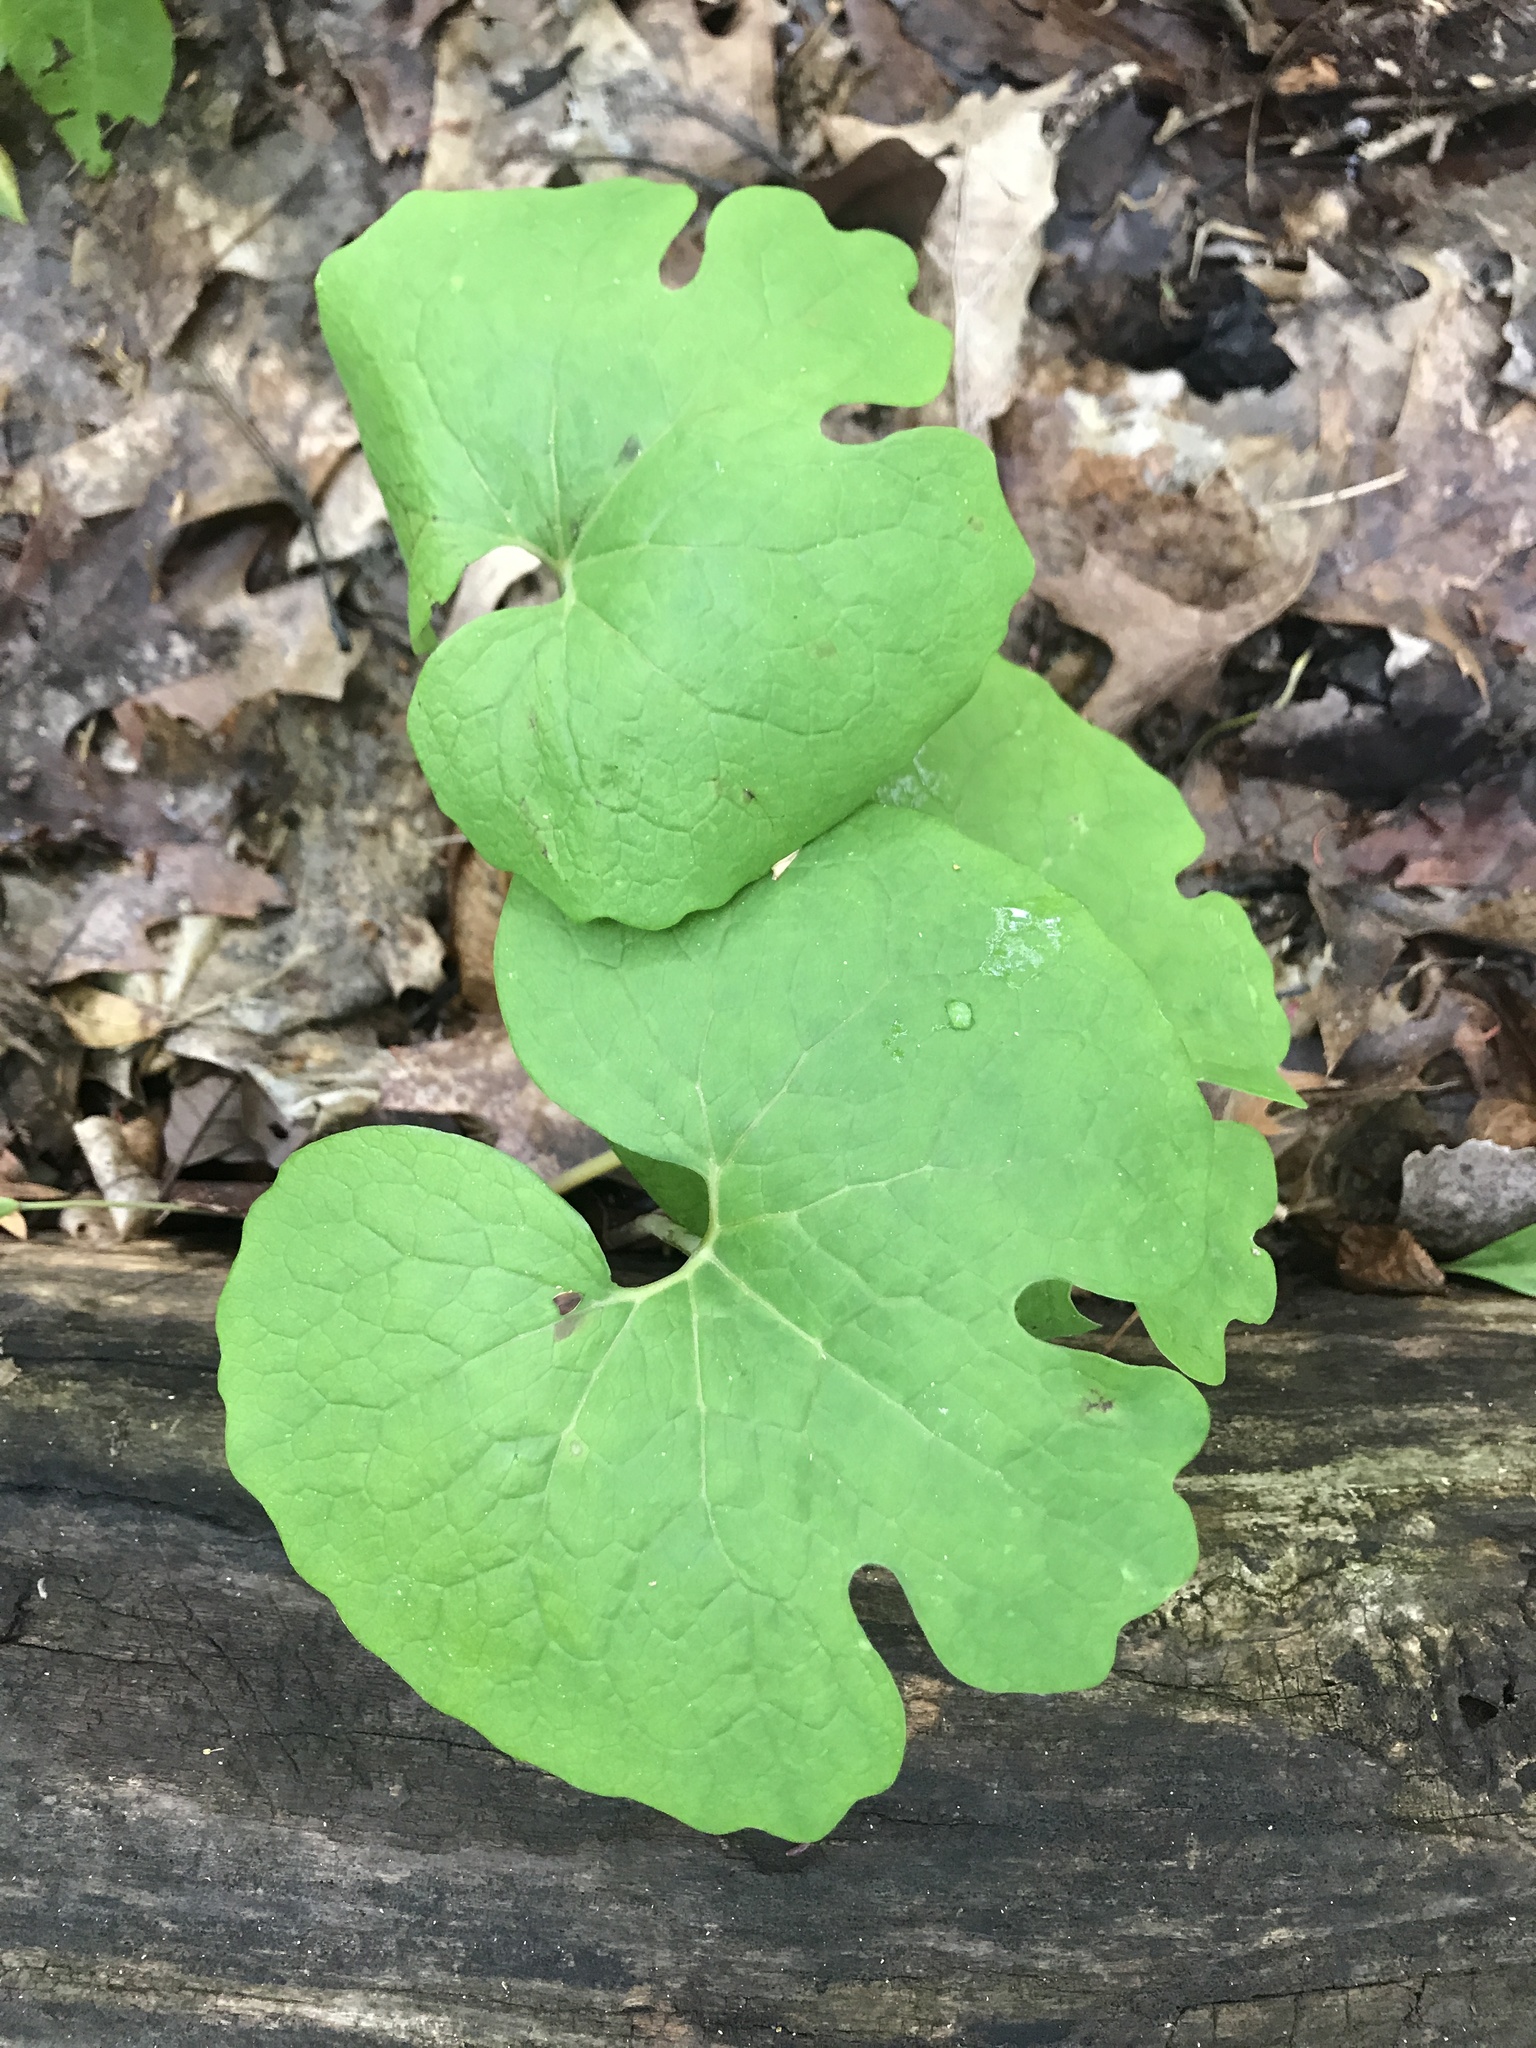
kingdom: Plantae
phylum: Tracheophyta
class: Magnoliopsida
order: Ranunculales
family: Papaveraceae
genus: Sanguinaria
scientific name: Sanguinaria canadensis
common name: Bloodroot
